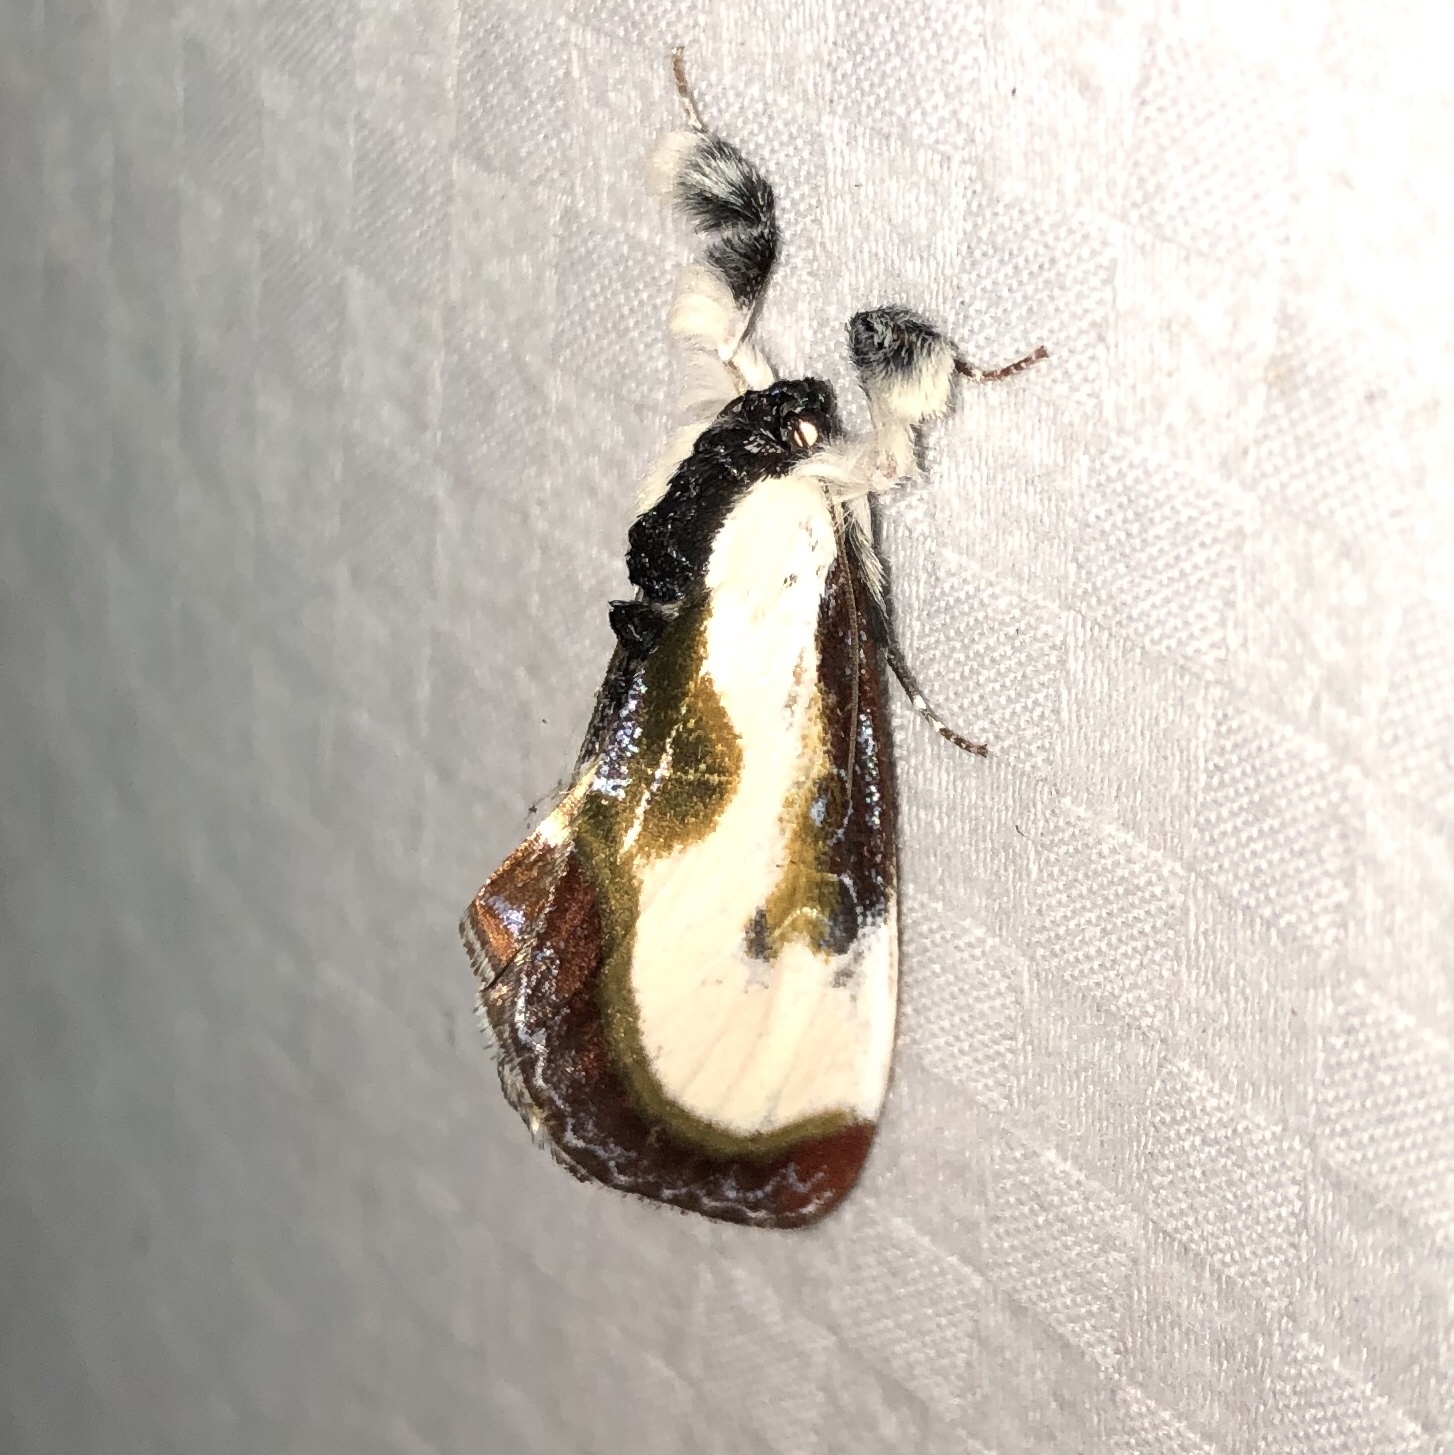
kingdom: Animalia
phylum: Arthropoda
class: Insecta
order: Lepidoptera
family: Noctuidae
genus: Eudryas
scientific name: Eudryas grata
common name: Beautiful wood-nymph
